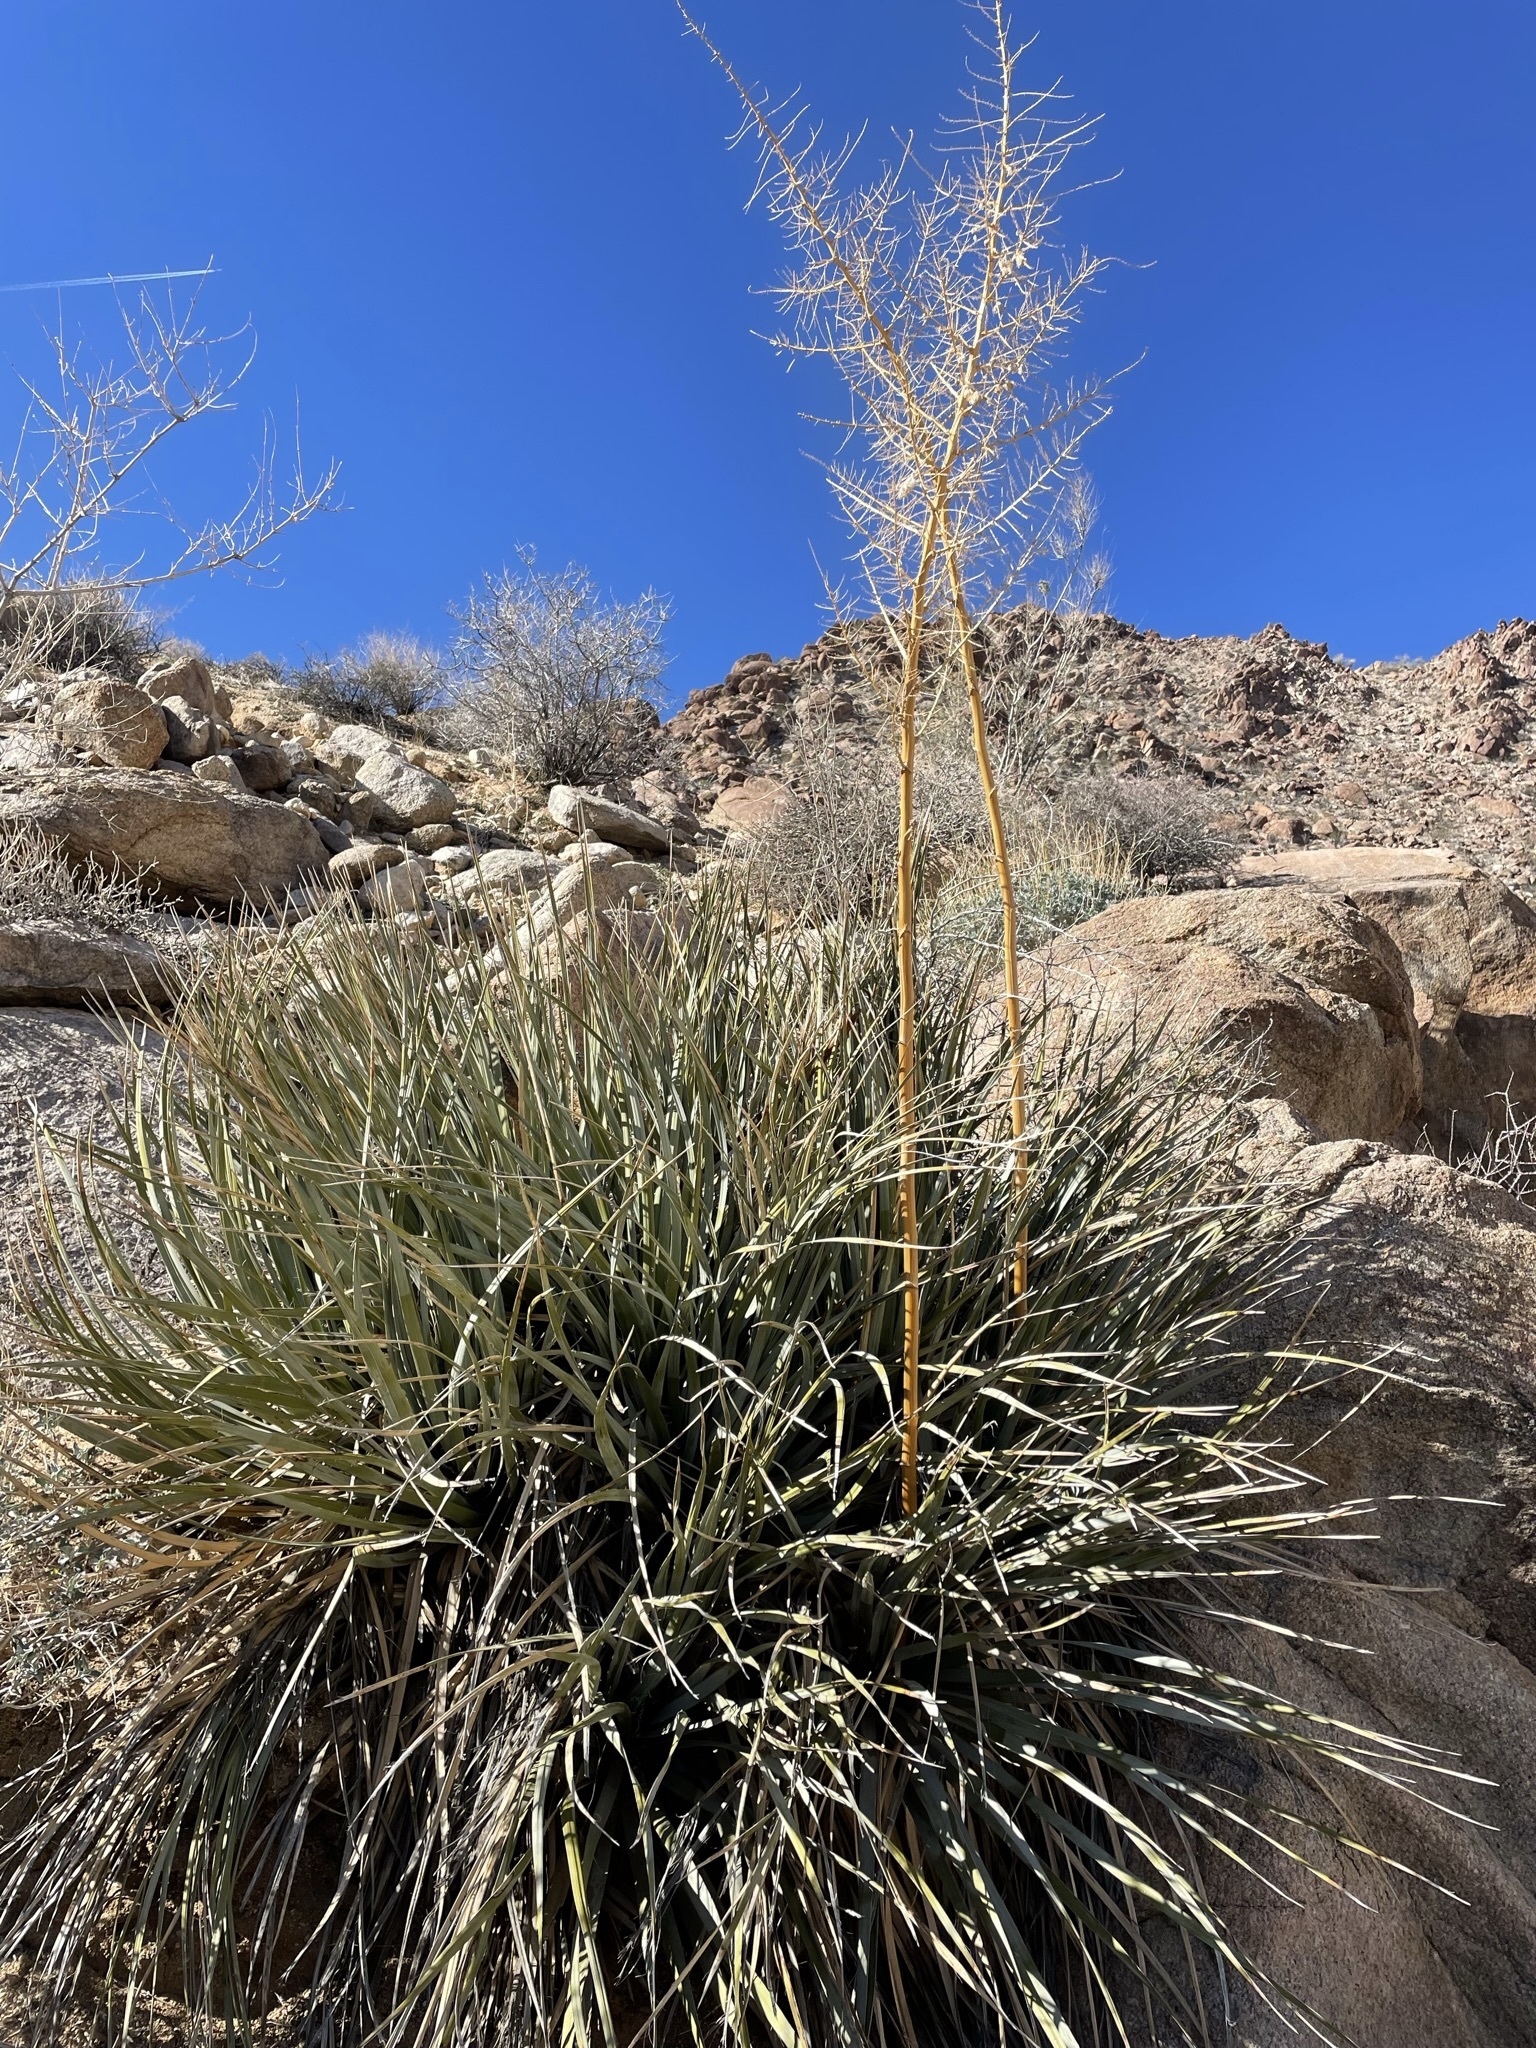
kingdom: Plantae
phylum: Tracheophyta
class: Liliopsida
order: Asparagales
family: Asparagaceae
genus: Nolina
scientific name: Nolina bigelovii
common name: Bigelow bear-grass
